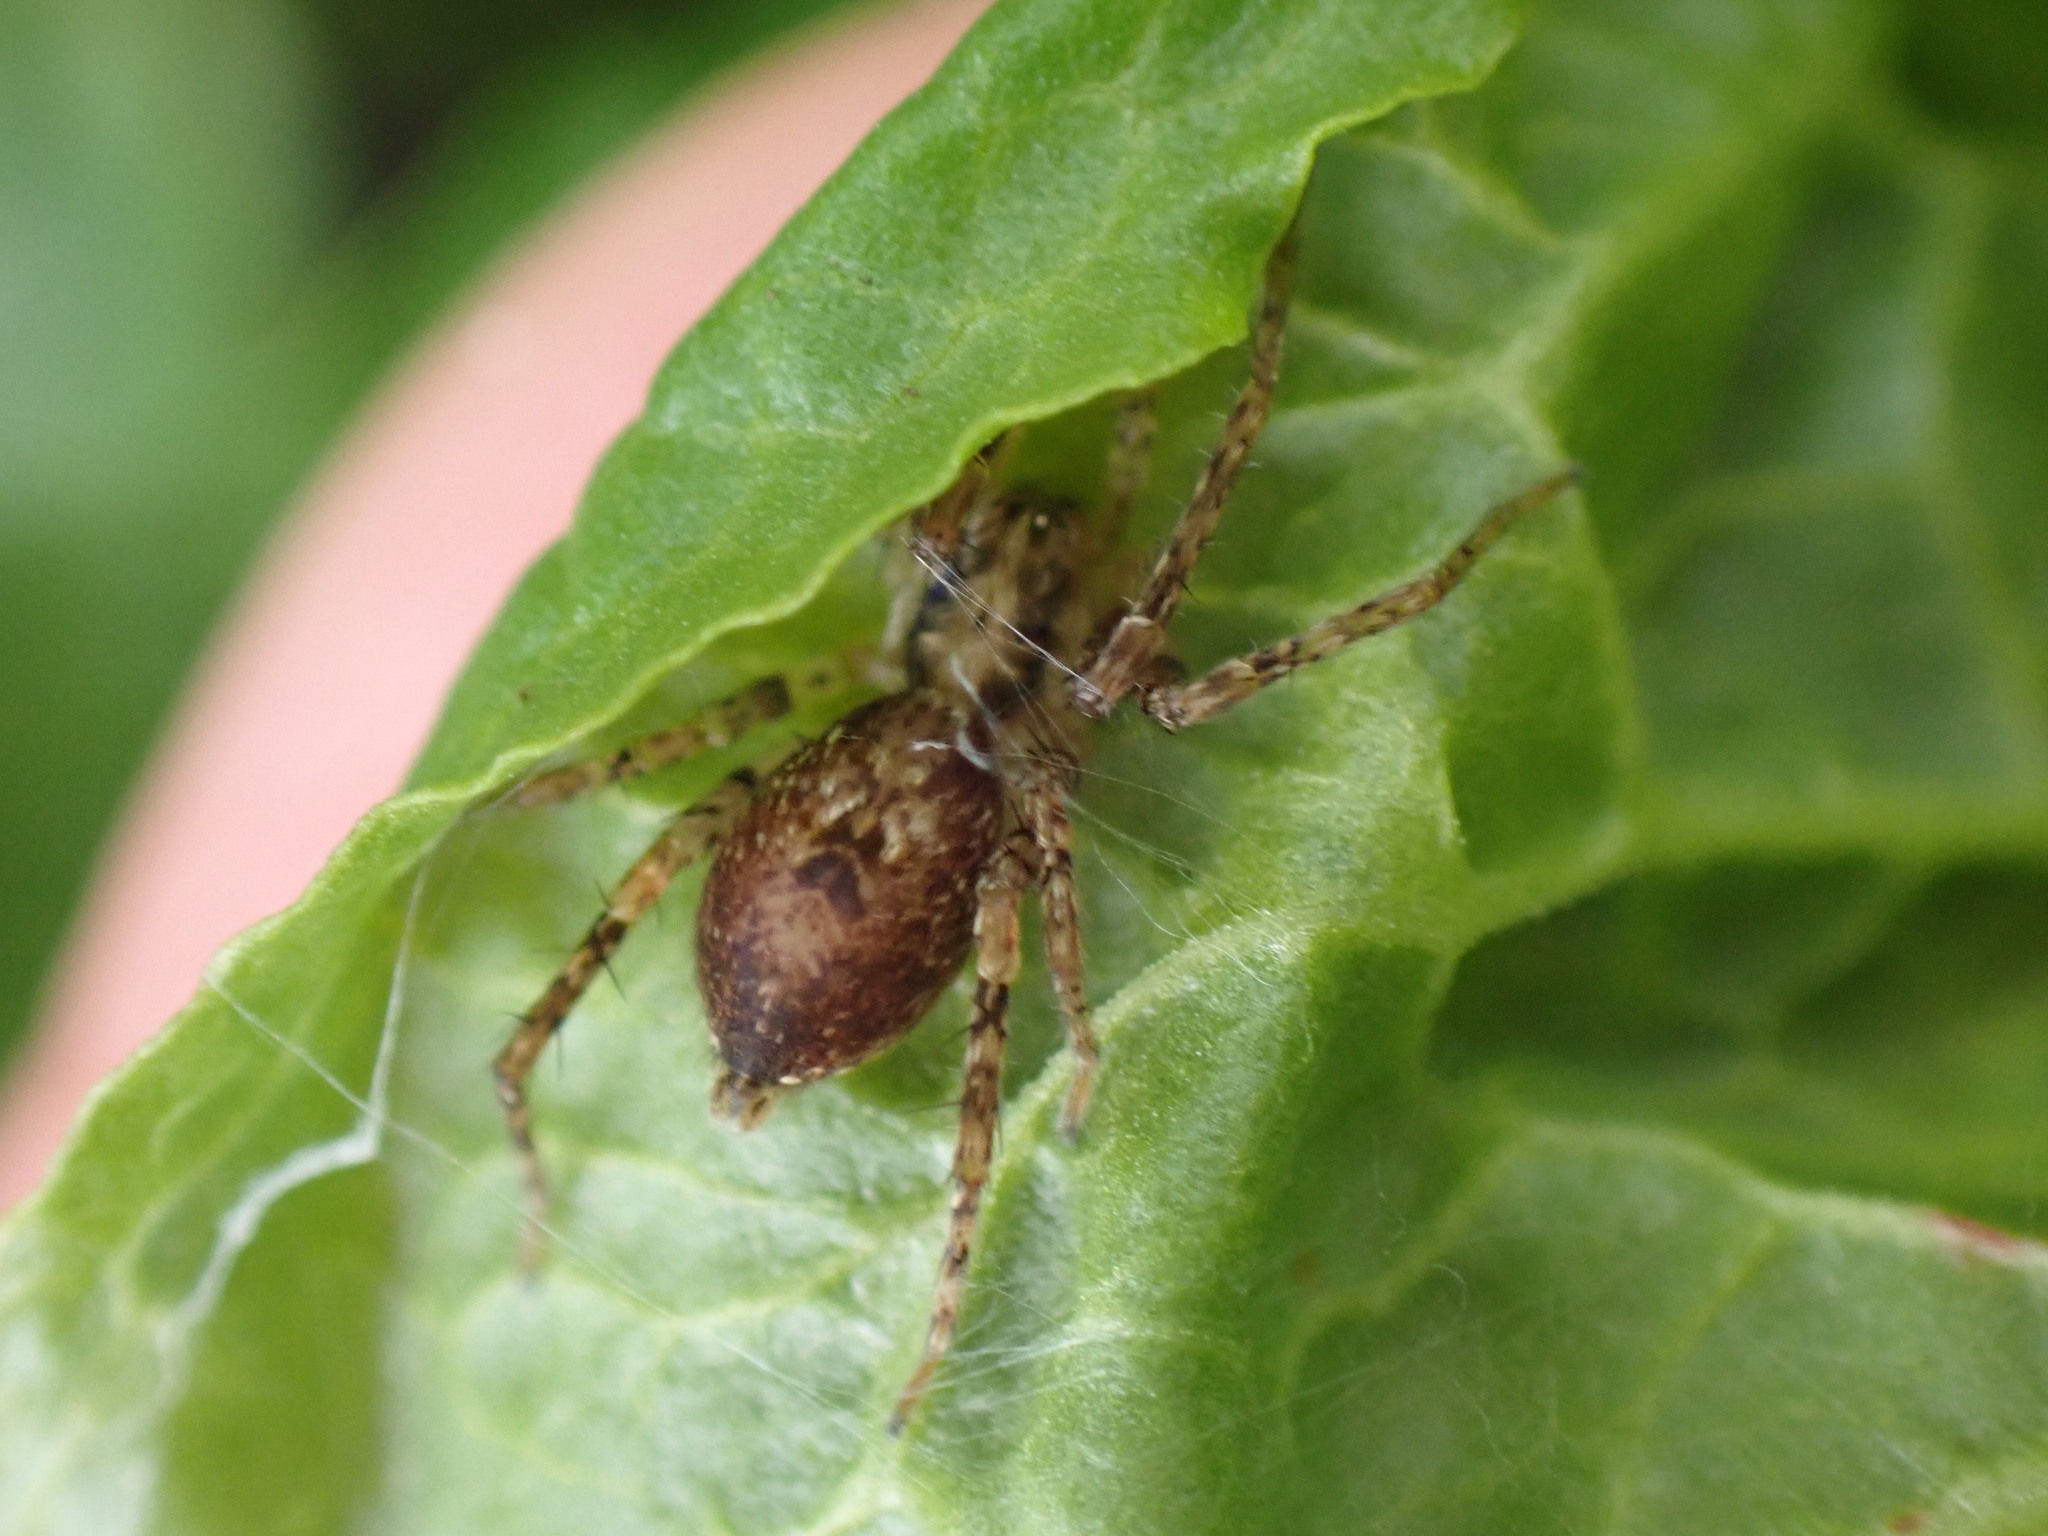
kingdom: Animalia
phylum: Arthropoda
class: Arachnida
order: Araneae
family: Anyphaenidae
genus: Anyphaena
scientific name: Anyphaena accentuata
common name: Buzzing spider
